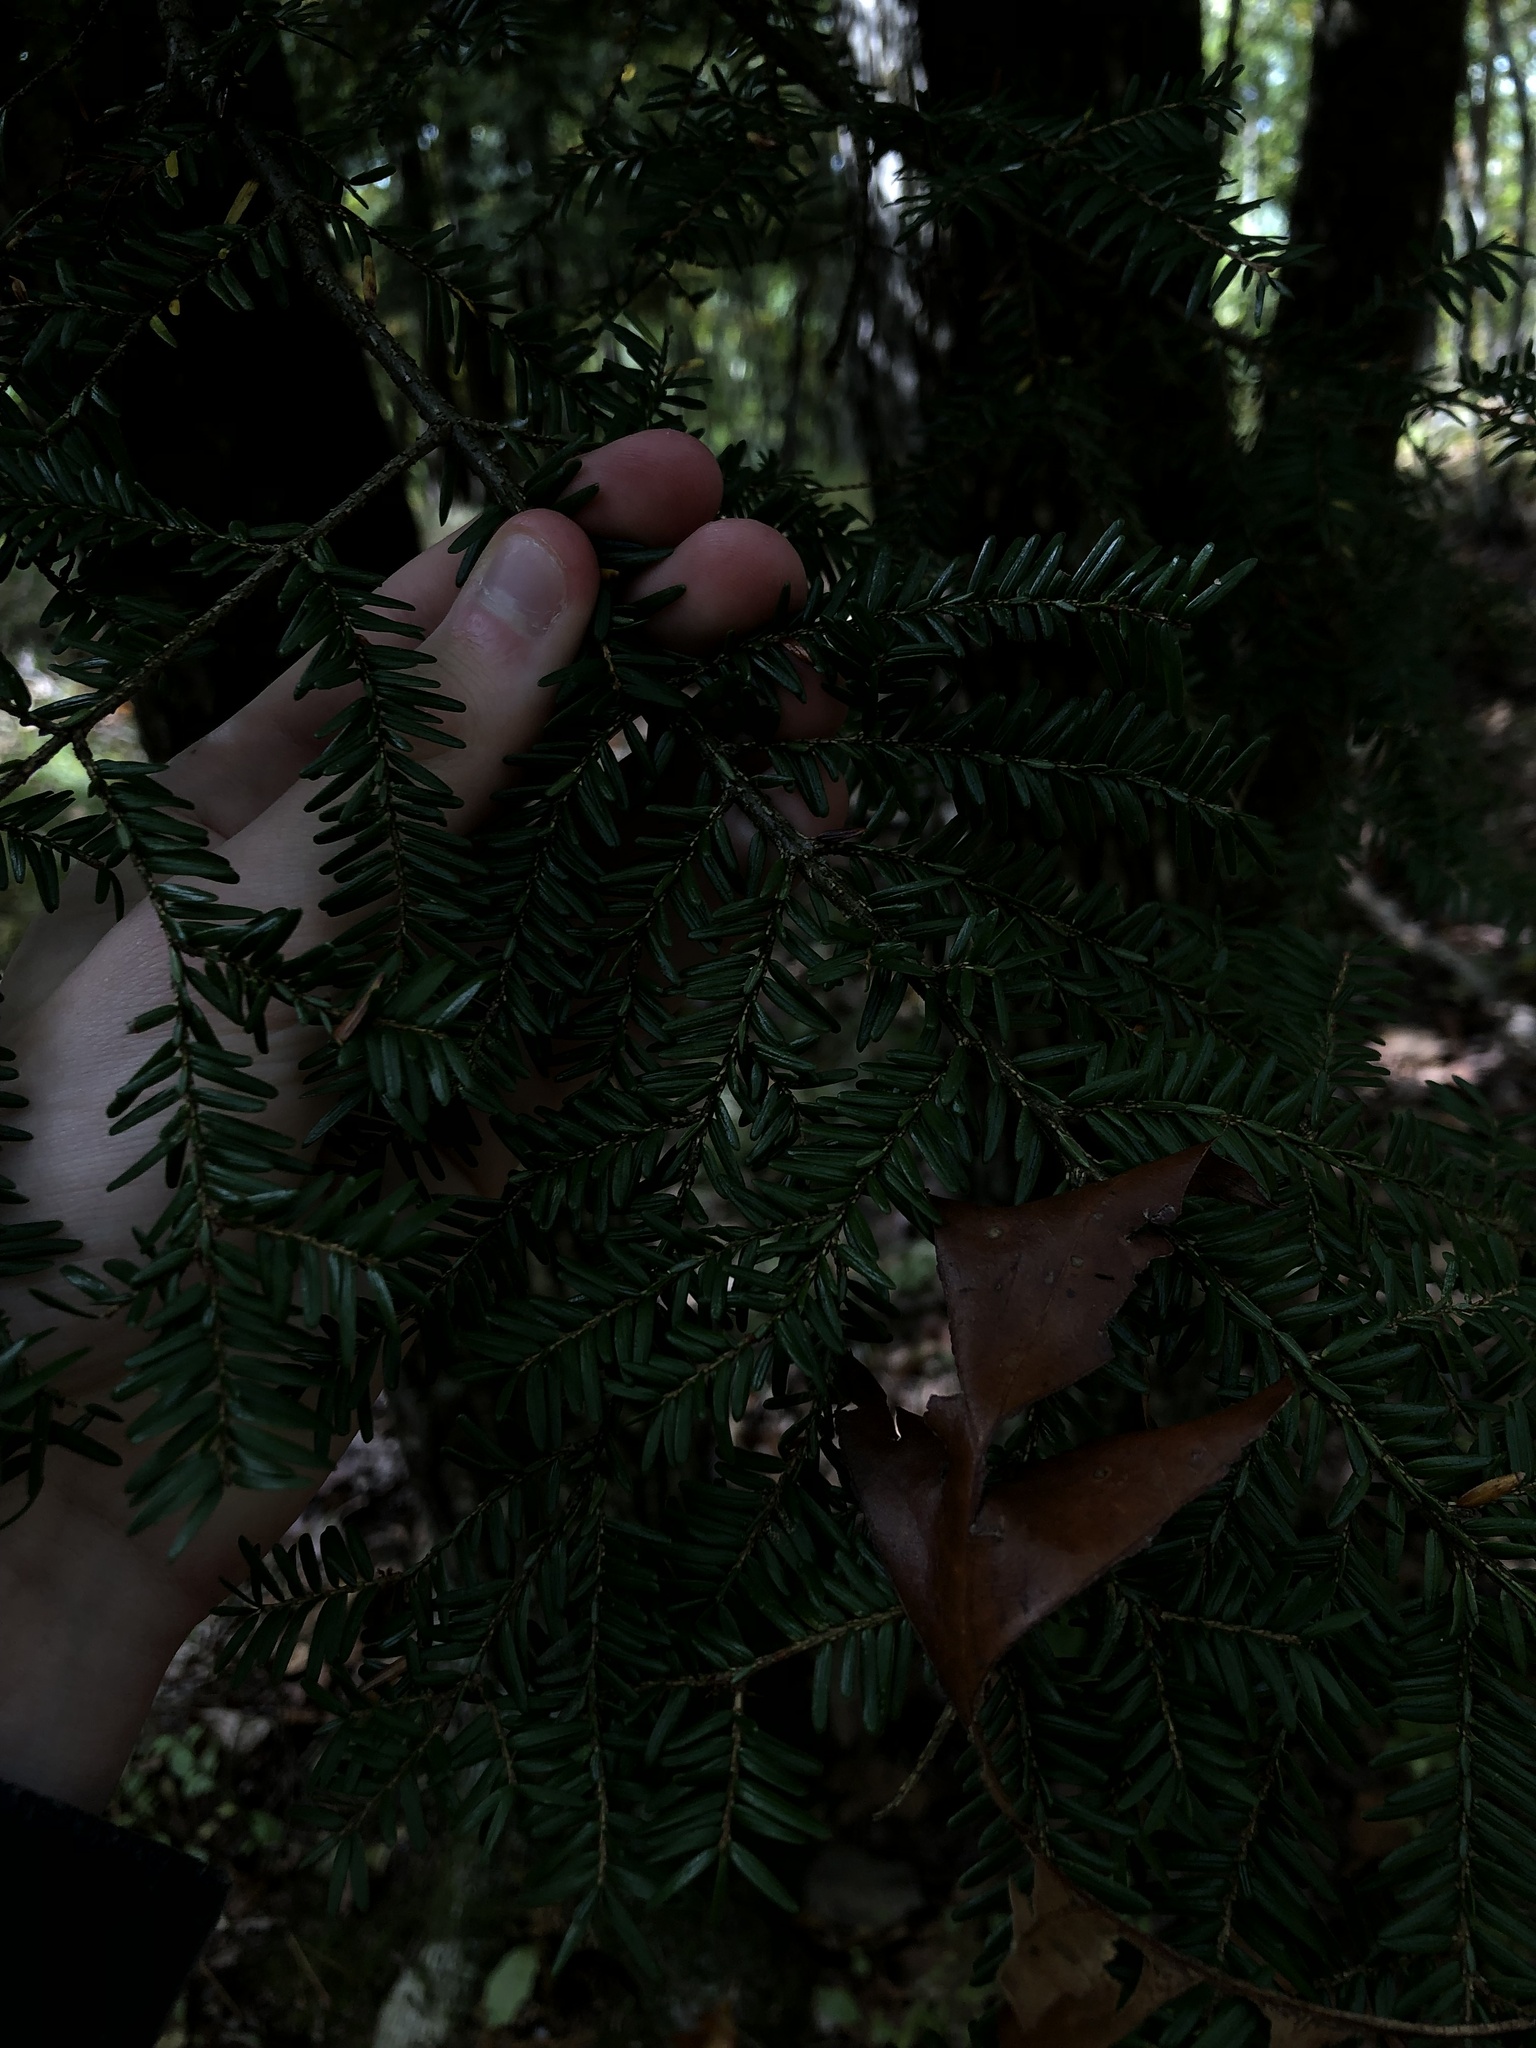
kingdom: Plantae
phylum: Tracheophyta
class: Pinopsida
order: Pinales
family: Pinaceae
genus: Tsuga
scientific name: Tsuga canadensis
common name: Eastern hemlock
